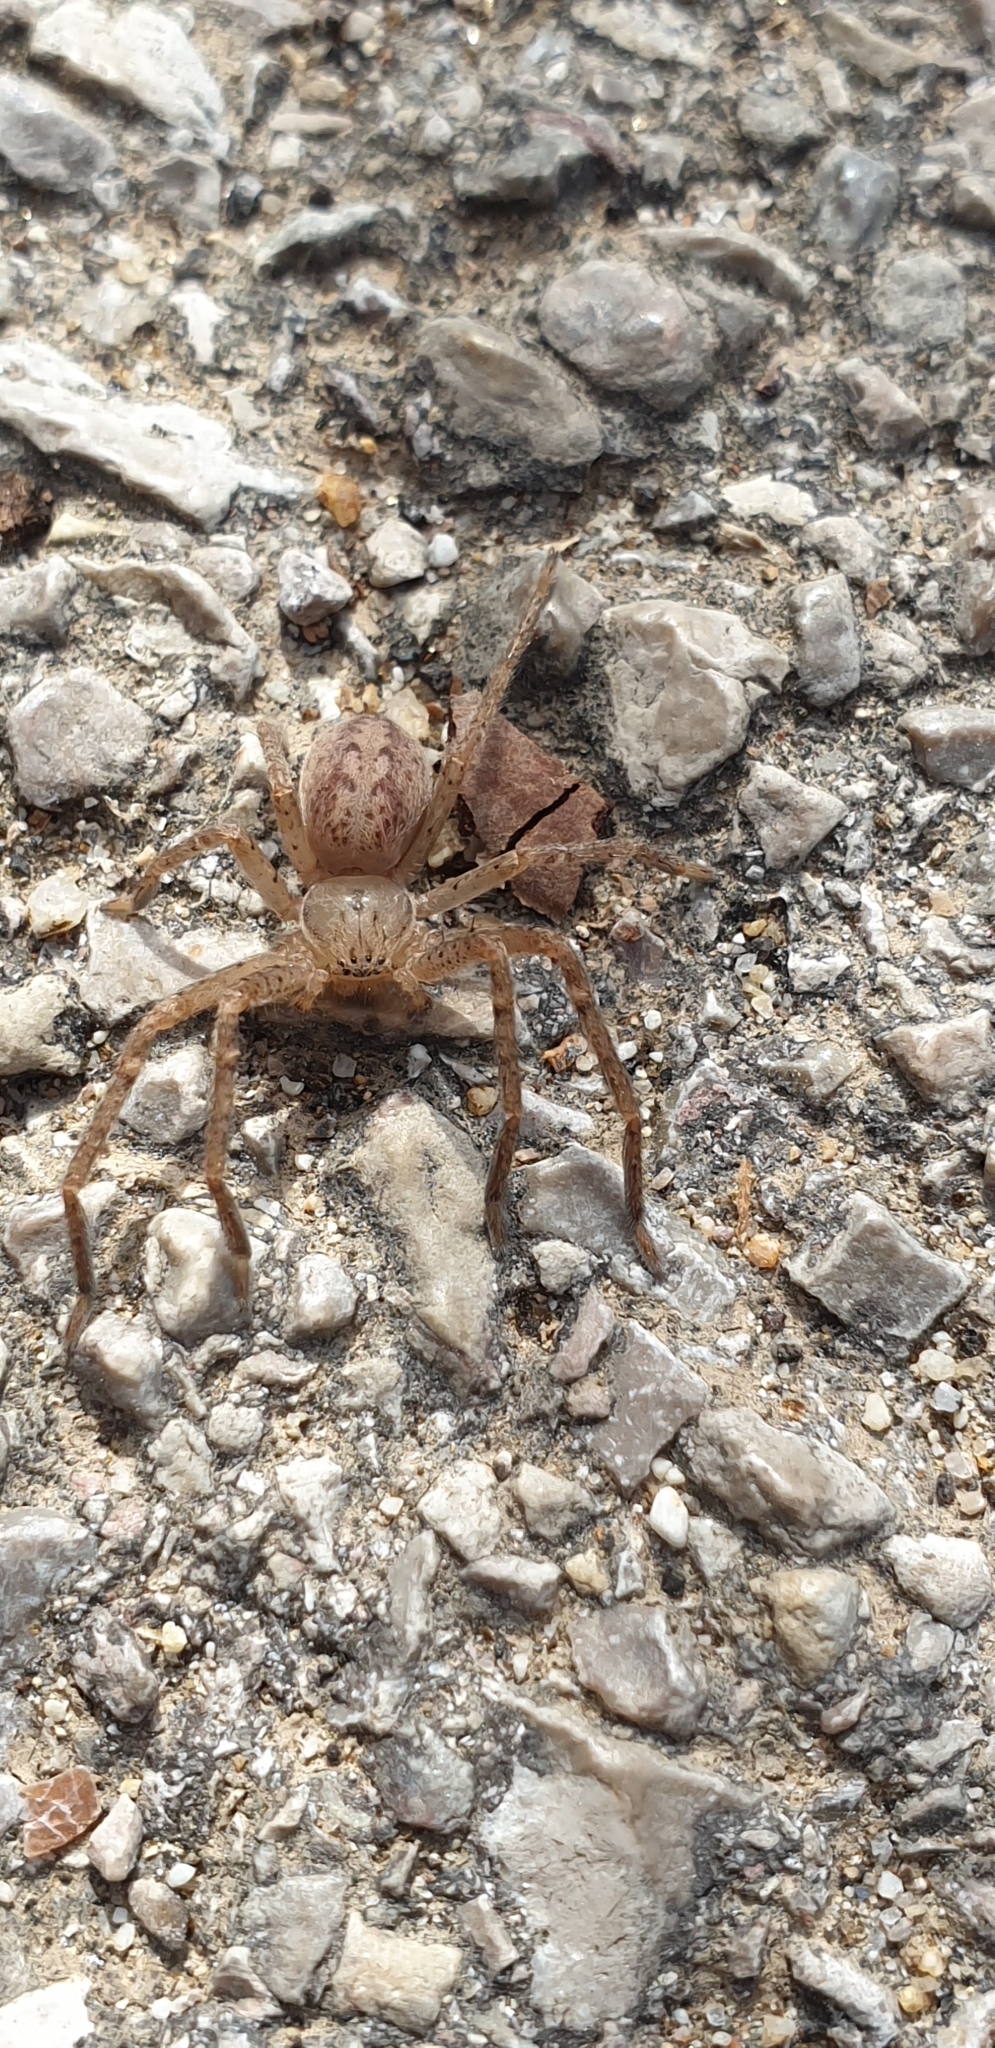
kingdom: Animalia
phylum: Arthropoda
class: Arachnida
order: Araneae
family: Sparassidae
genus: Olios
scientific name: Olios argelasius
